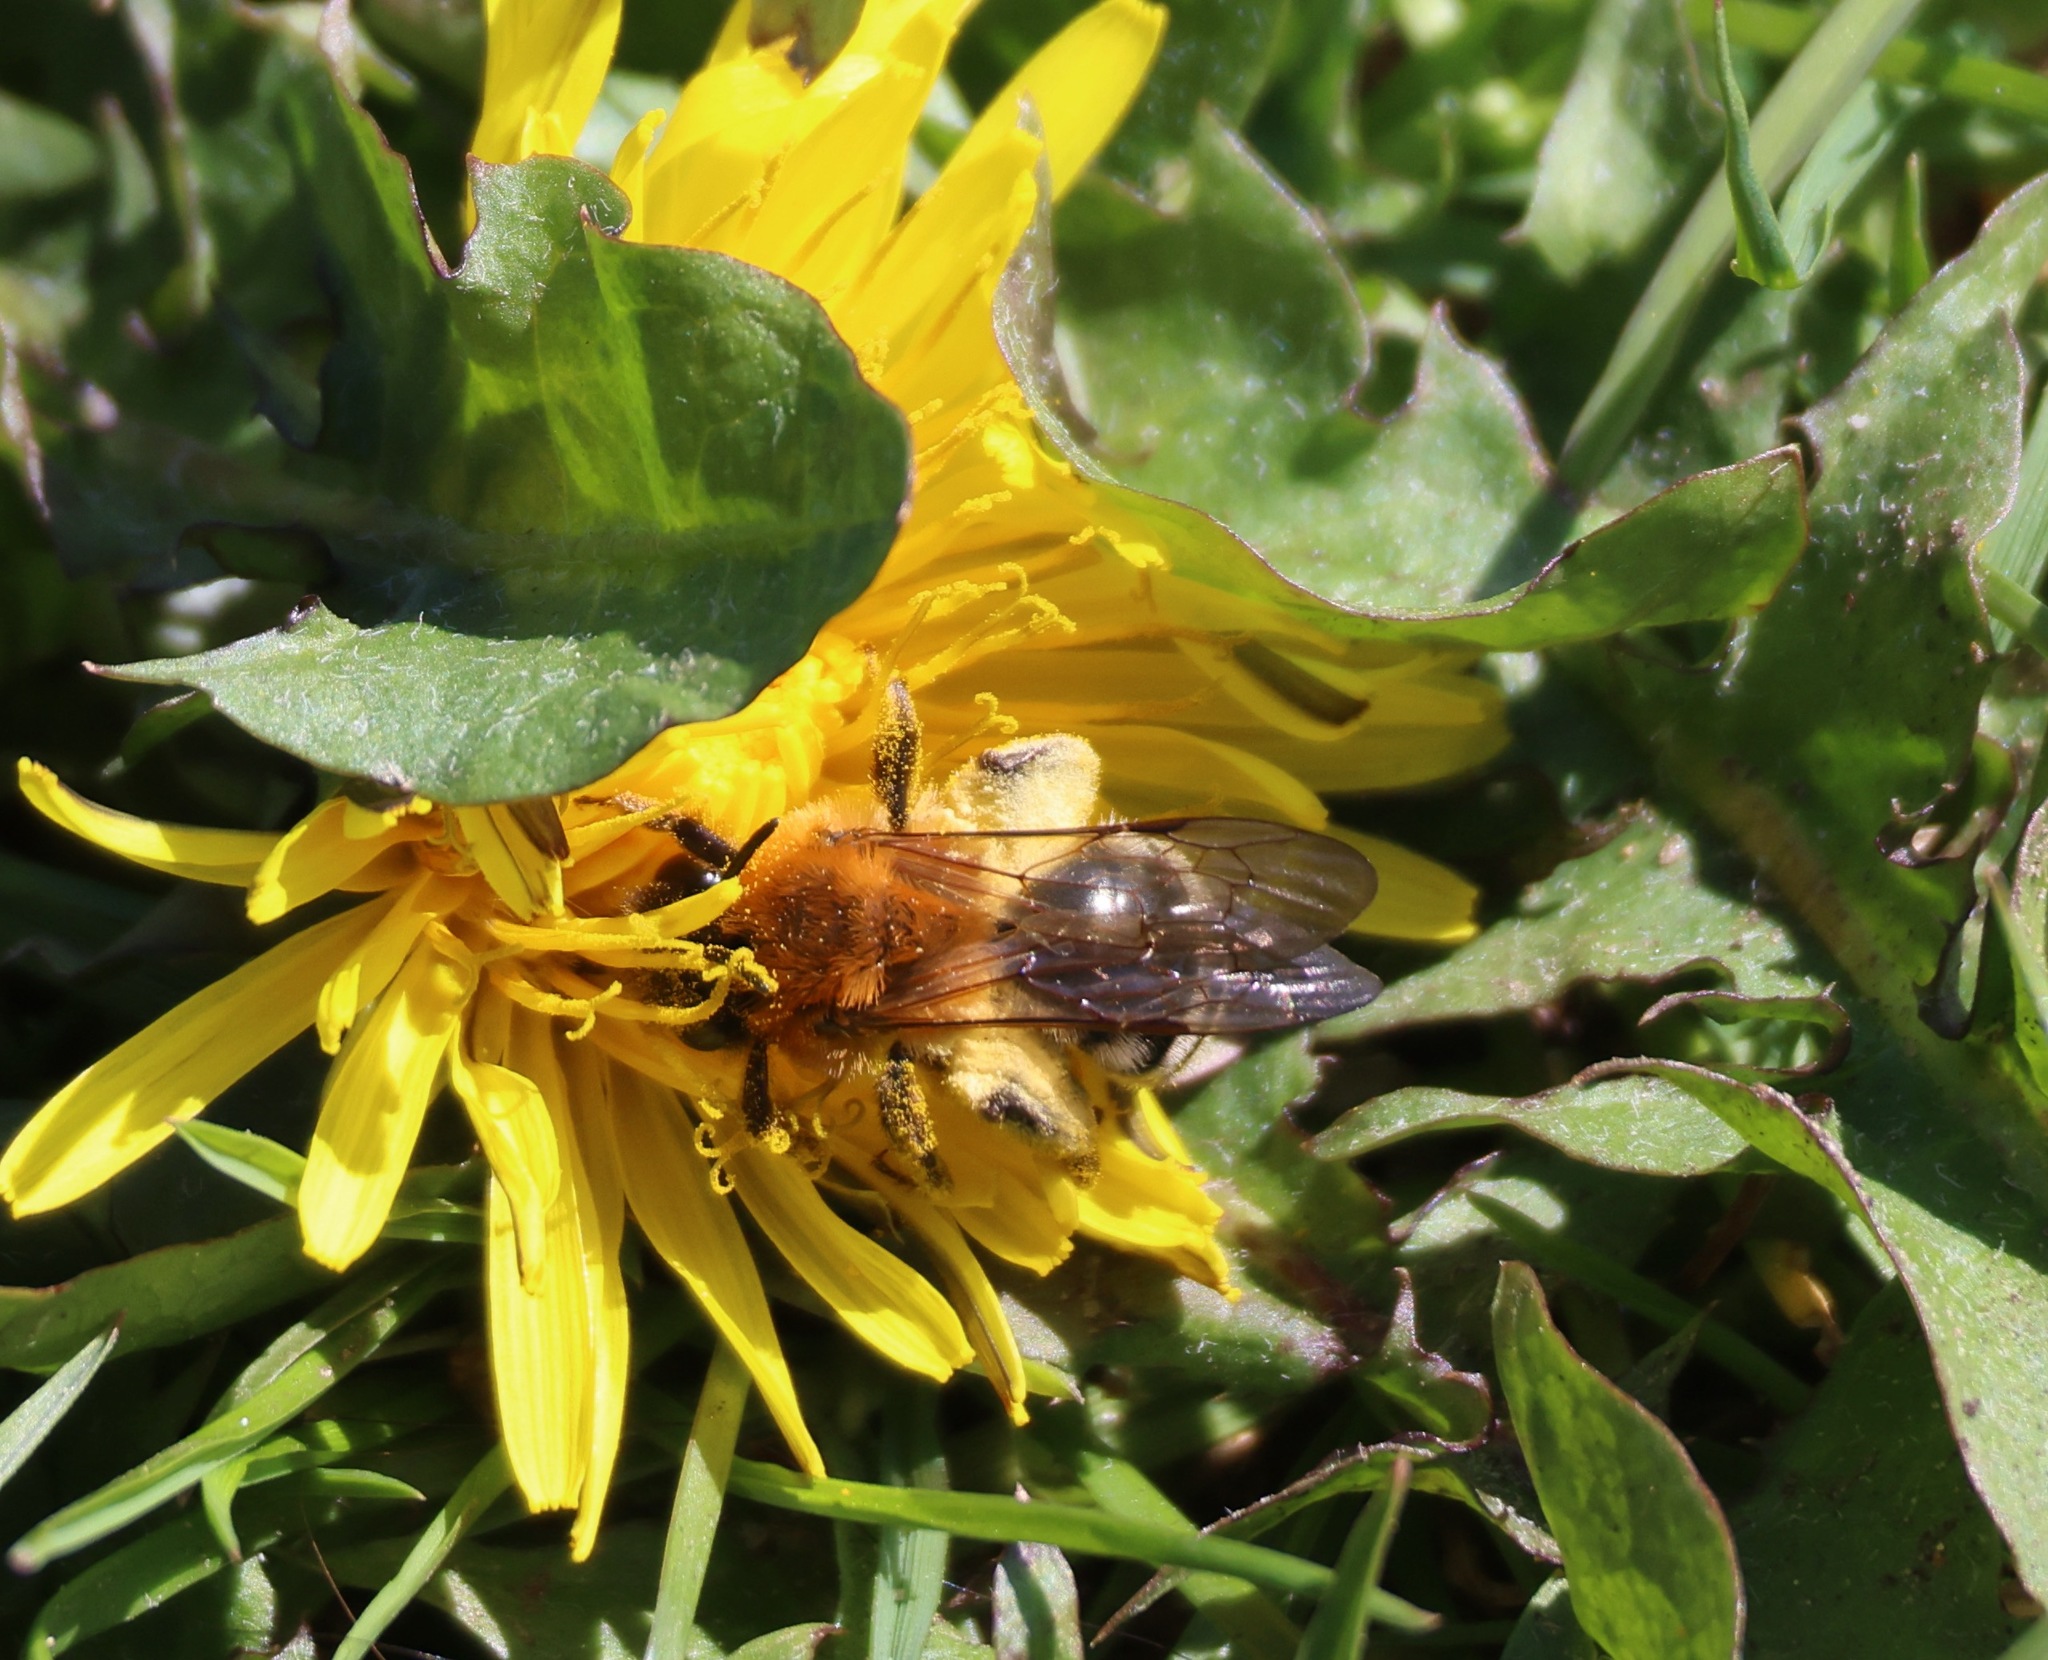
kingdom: Animalia
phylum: Arthropoda
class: Insecta
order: Hymenoptera
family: Andrenidae
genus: Andrena
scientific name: Andrena nitida
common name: Grey-patched mining bee
